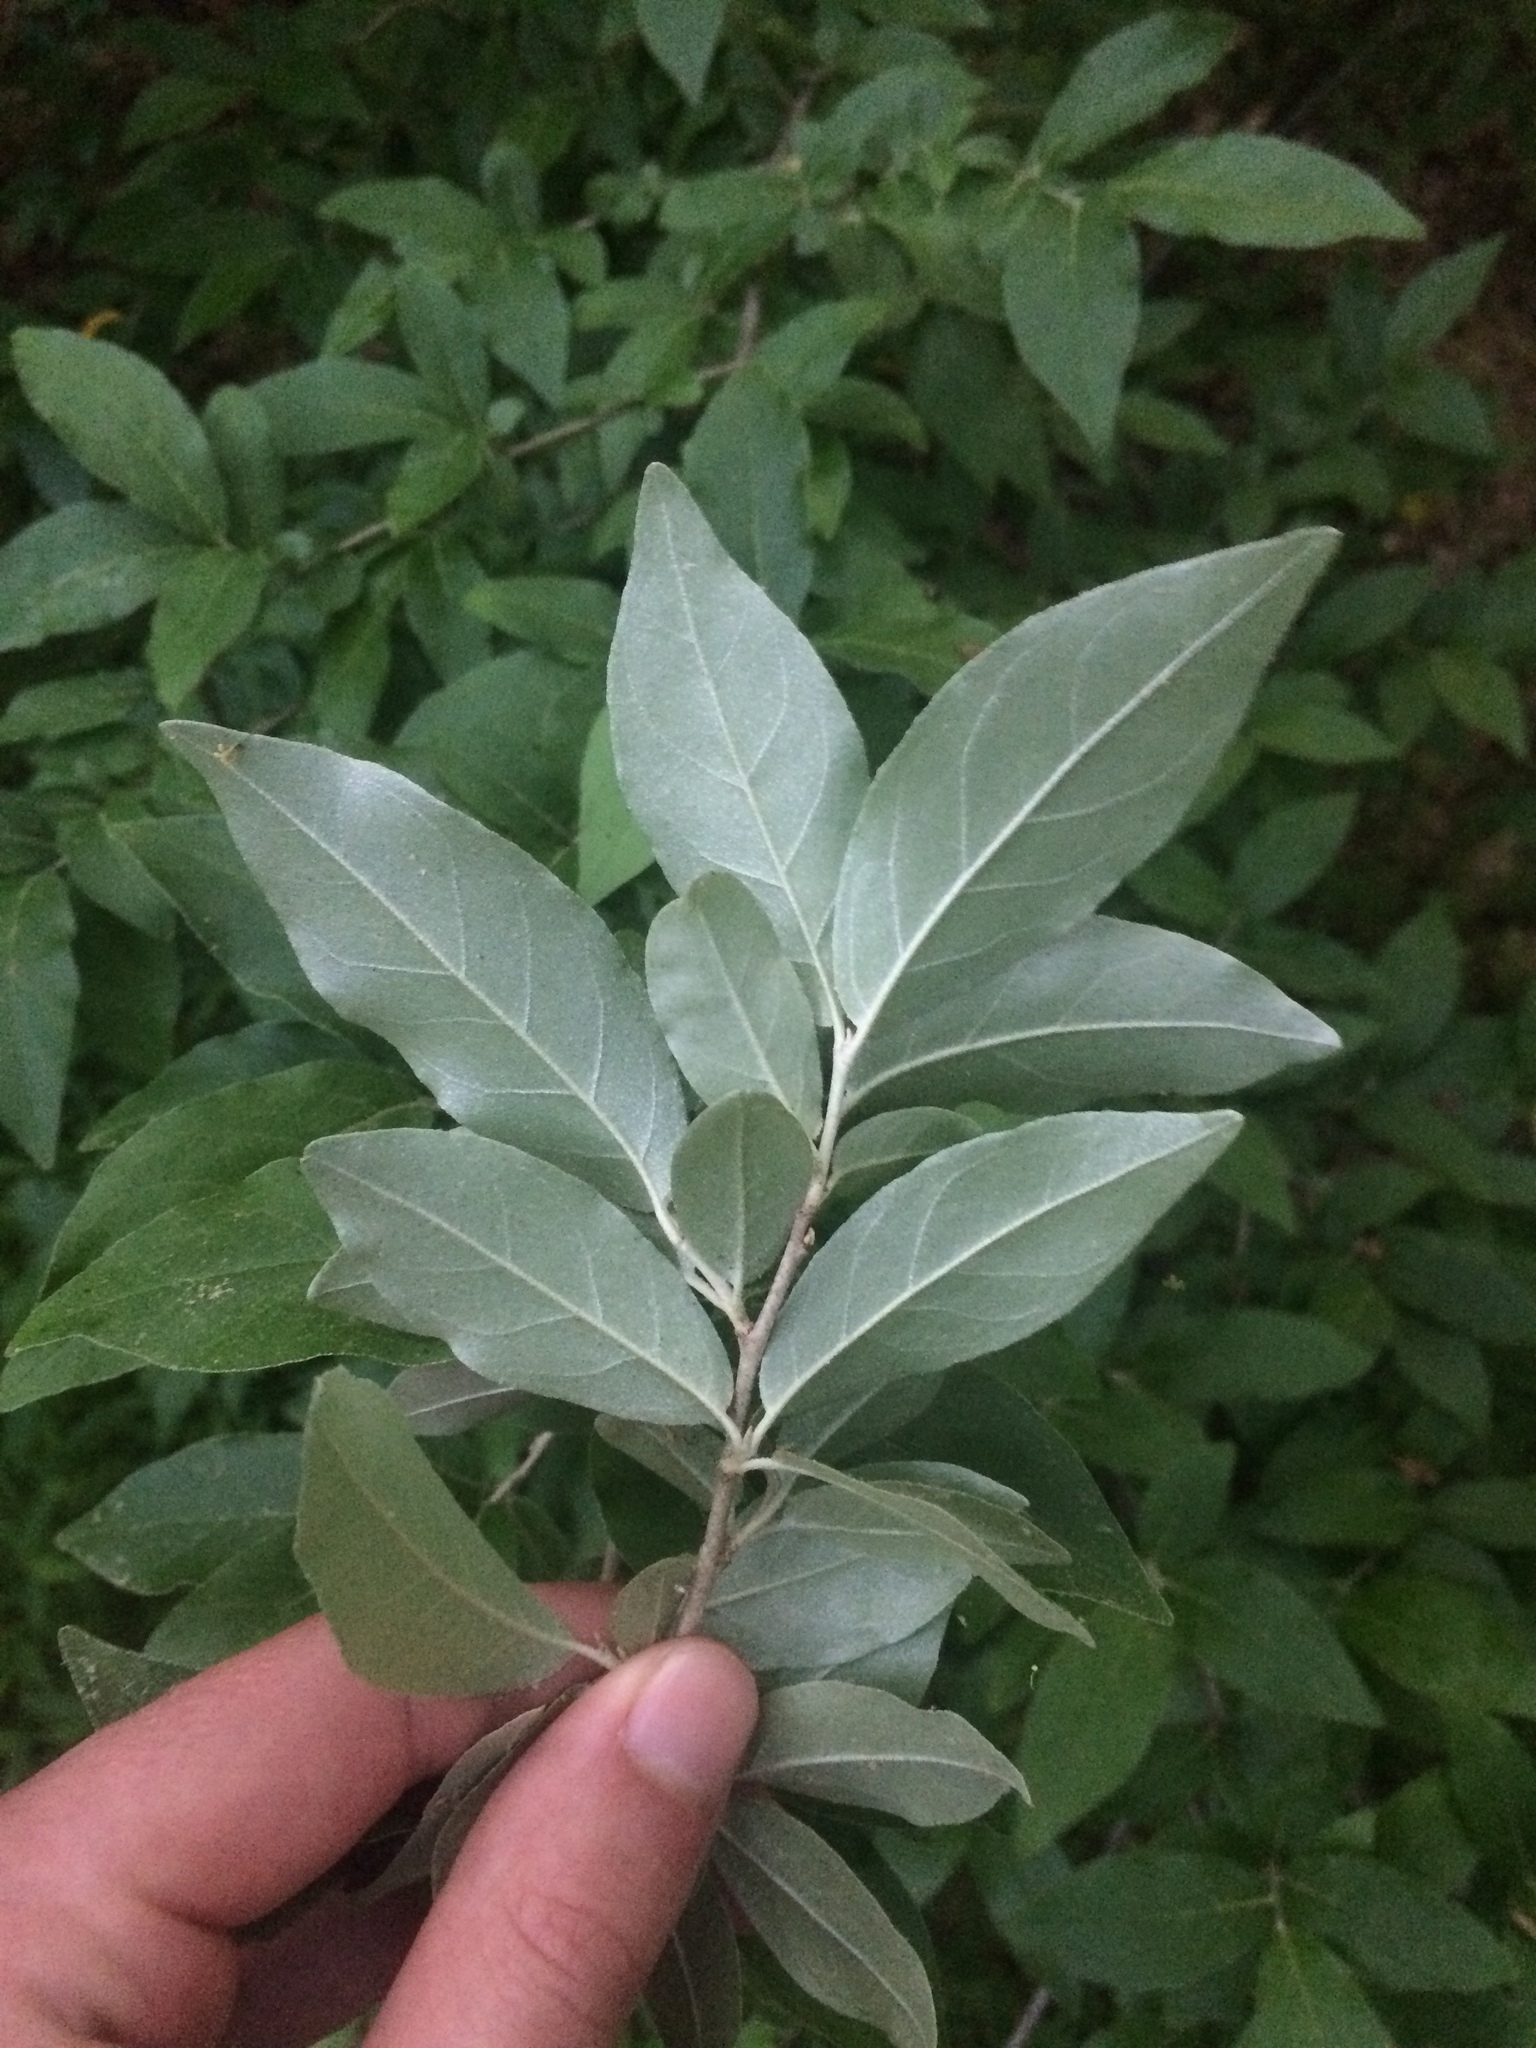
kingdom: Plantae
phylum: Tracheophyta
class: Magnoliopsida
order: Rosales
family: Elaeagnaceae
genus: Elaeagnus
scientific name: Elaeagnus umbellata
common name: Autumn olive
